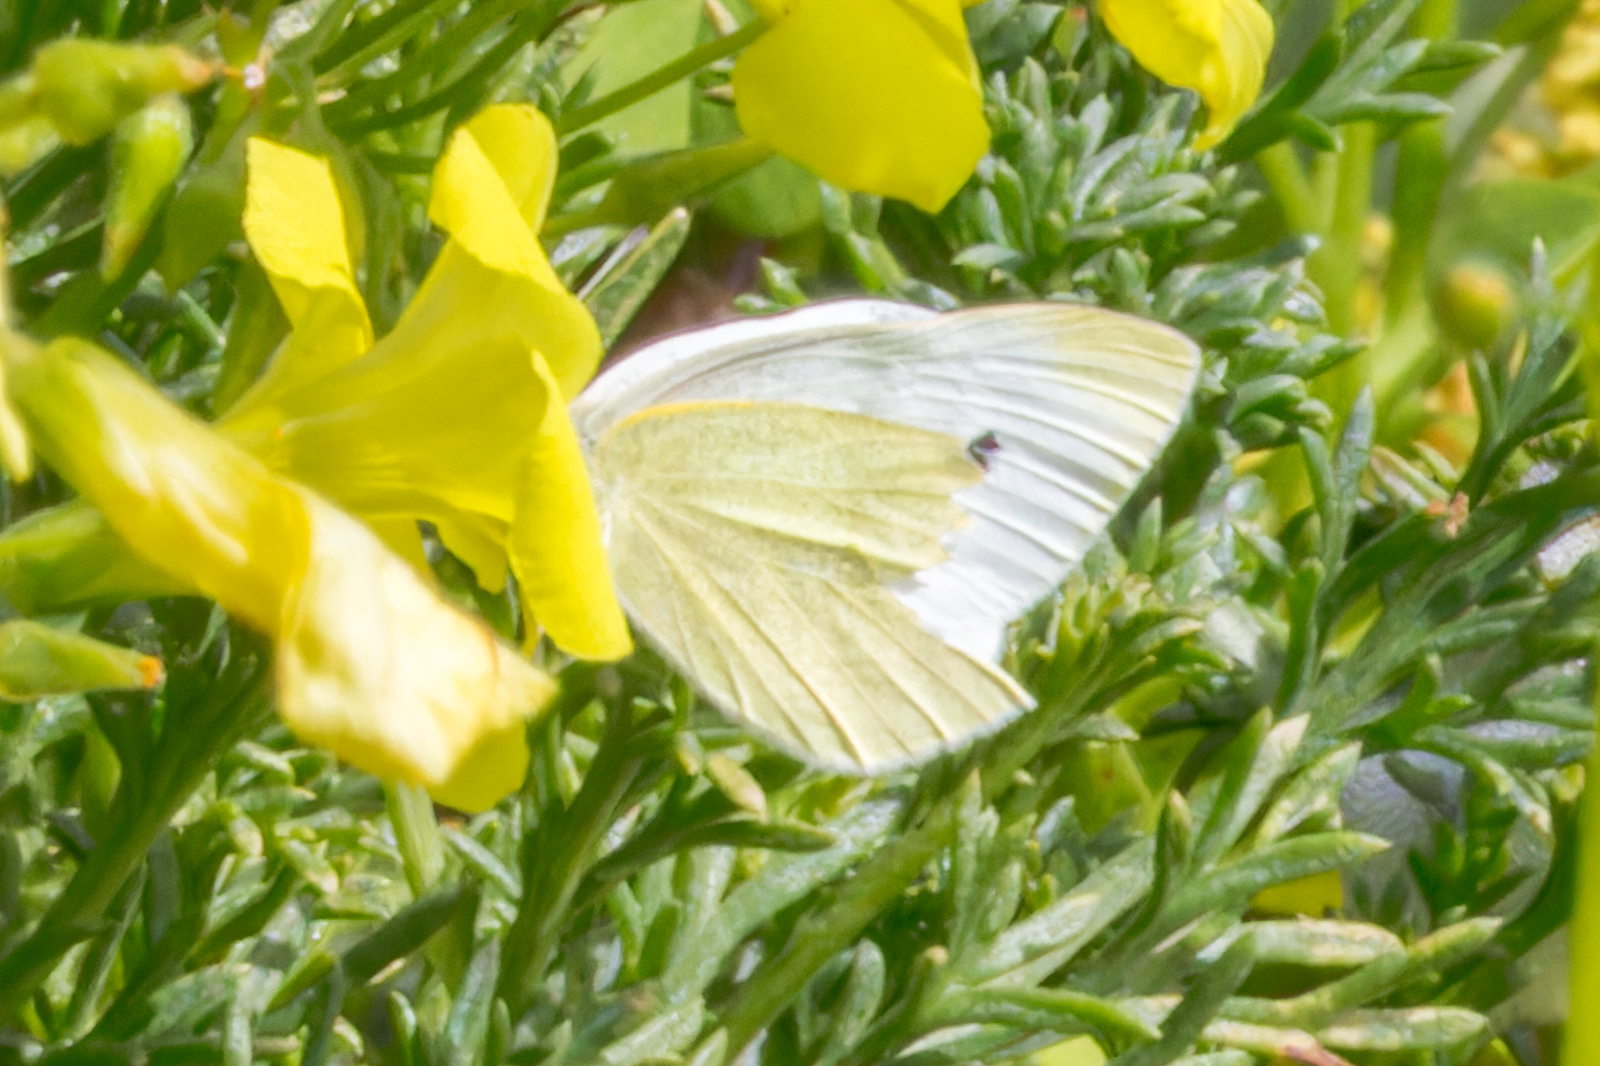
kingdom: Animalia
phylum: Arthropoda
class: Insecta
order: Lepidoptera
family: Pieridae
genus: Pieris
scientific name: Pieris rapae
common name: Small white
